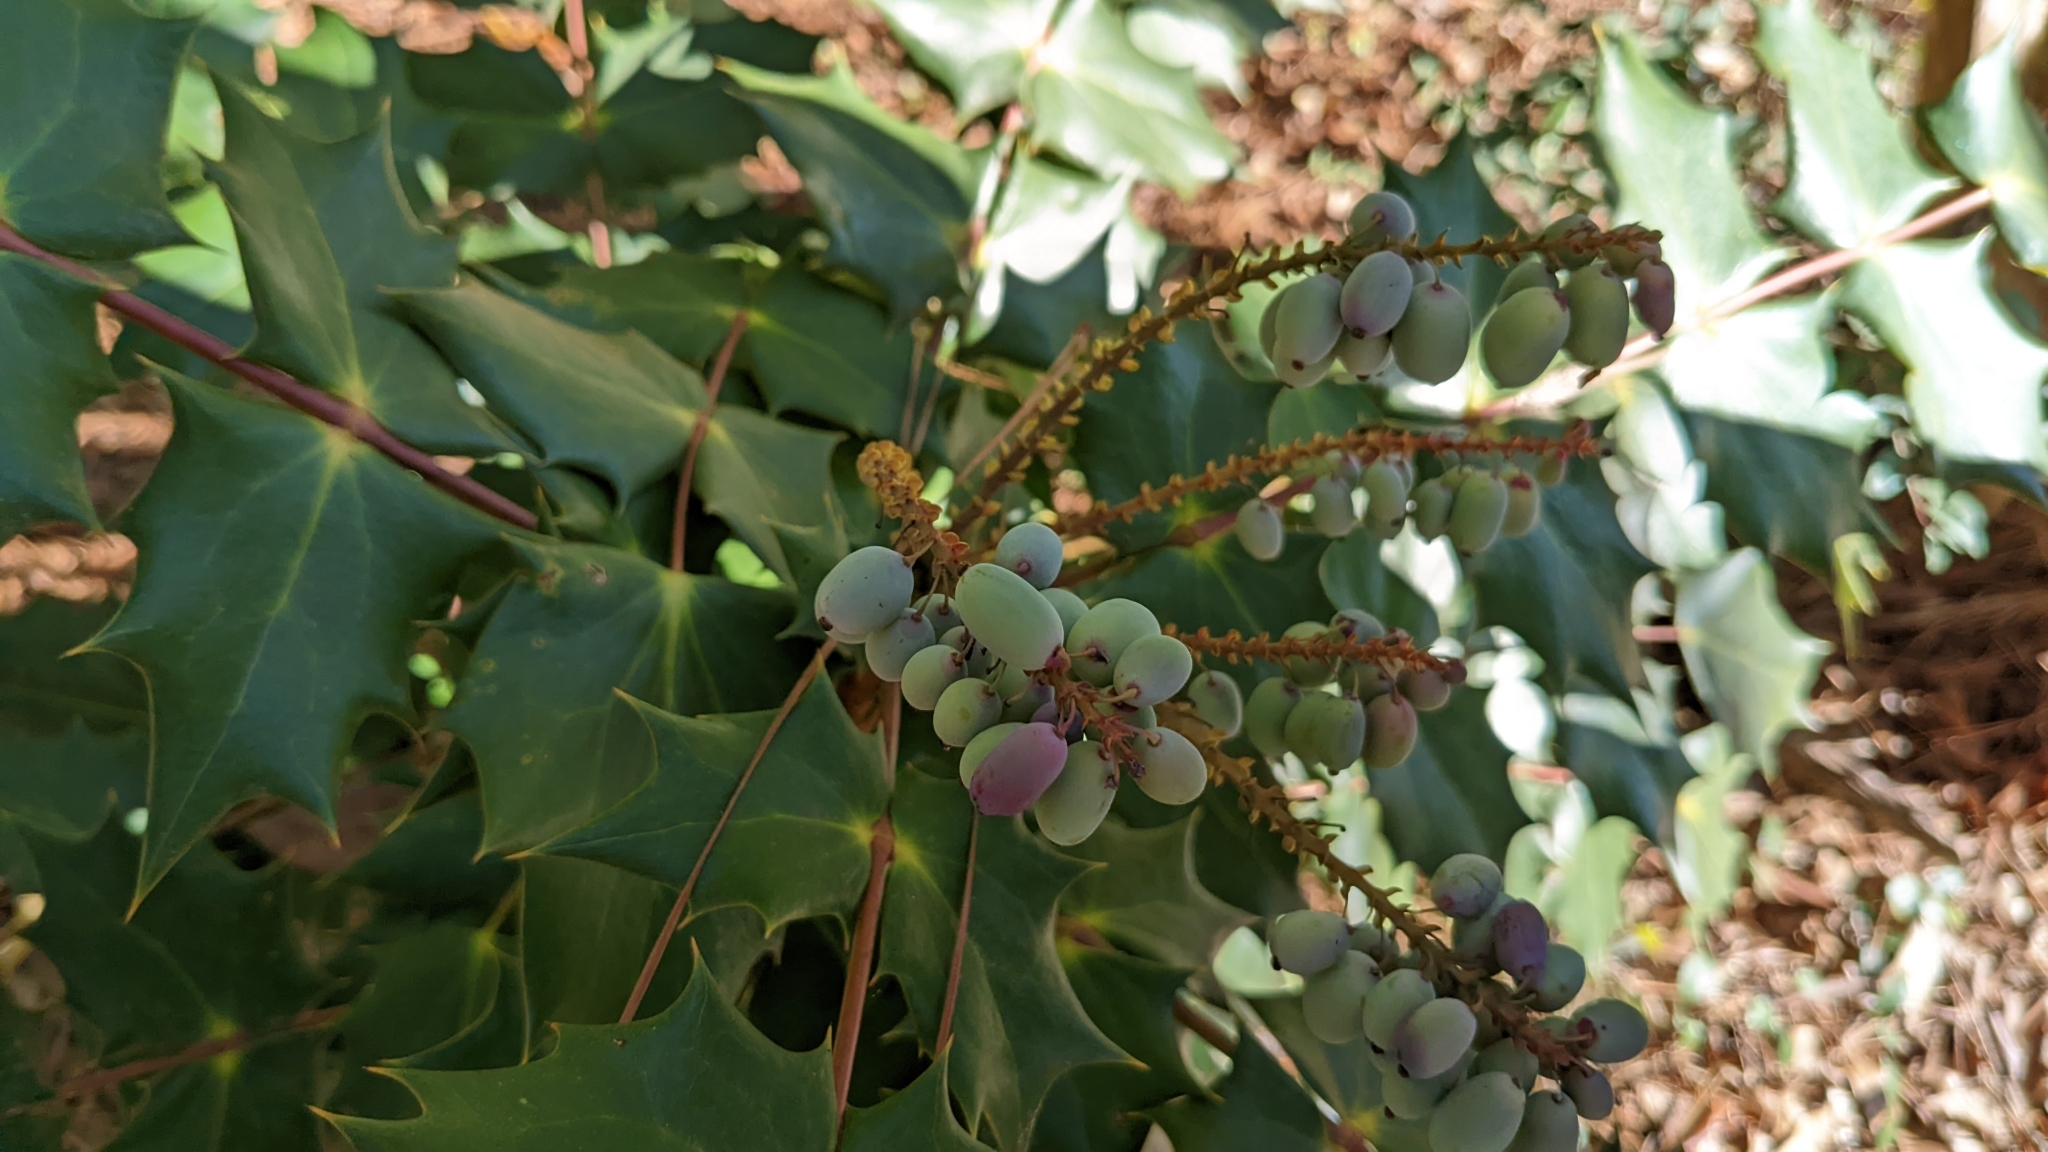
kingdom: Plantae
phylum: Tracheophyta
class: Magnoliopsida
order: Ranunculales
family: Berberidaceae
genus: Mahonia
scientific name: Mahonia bealei
